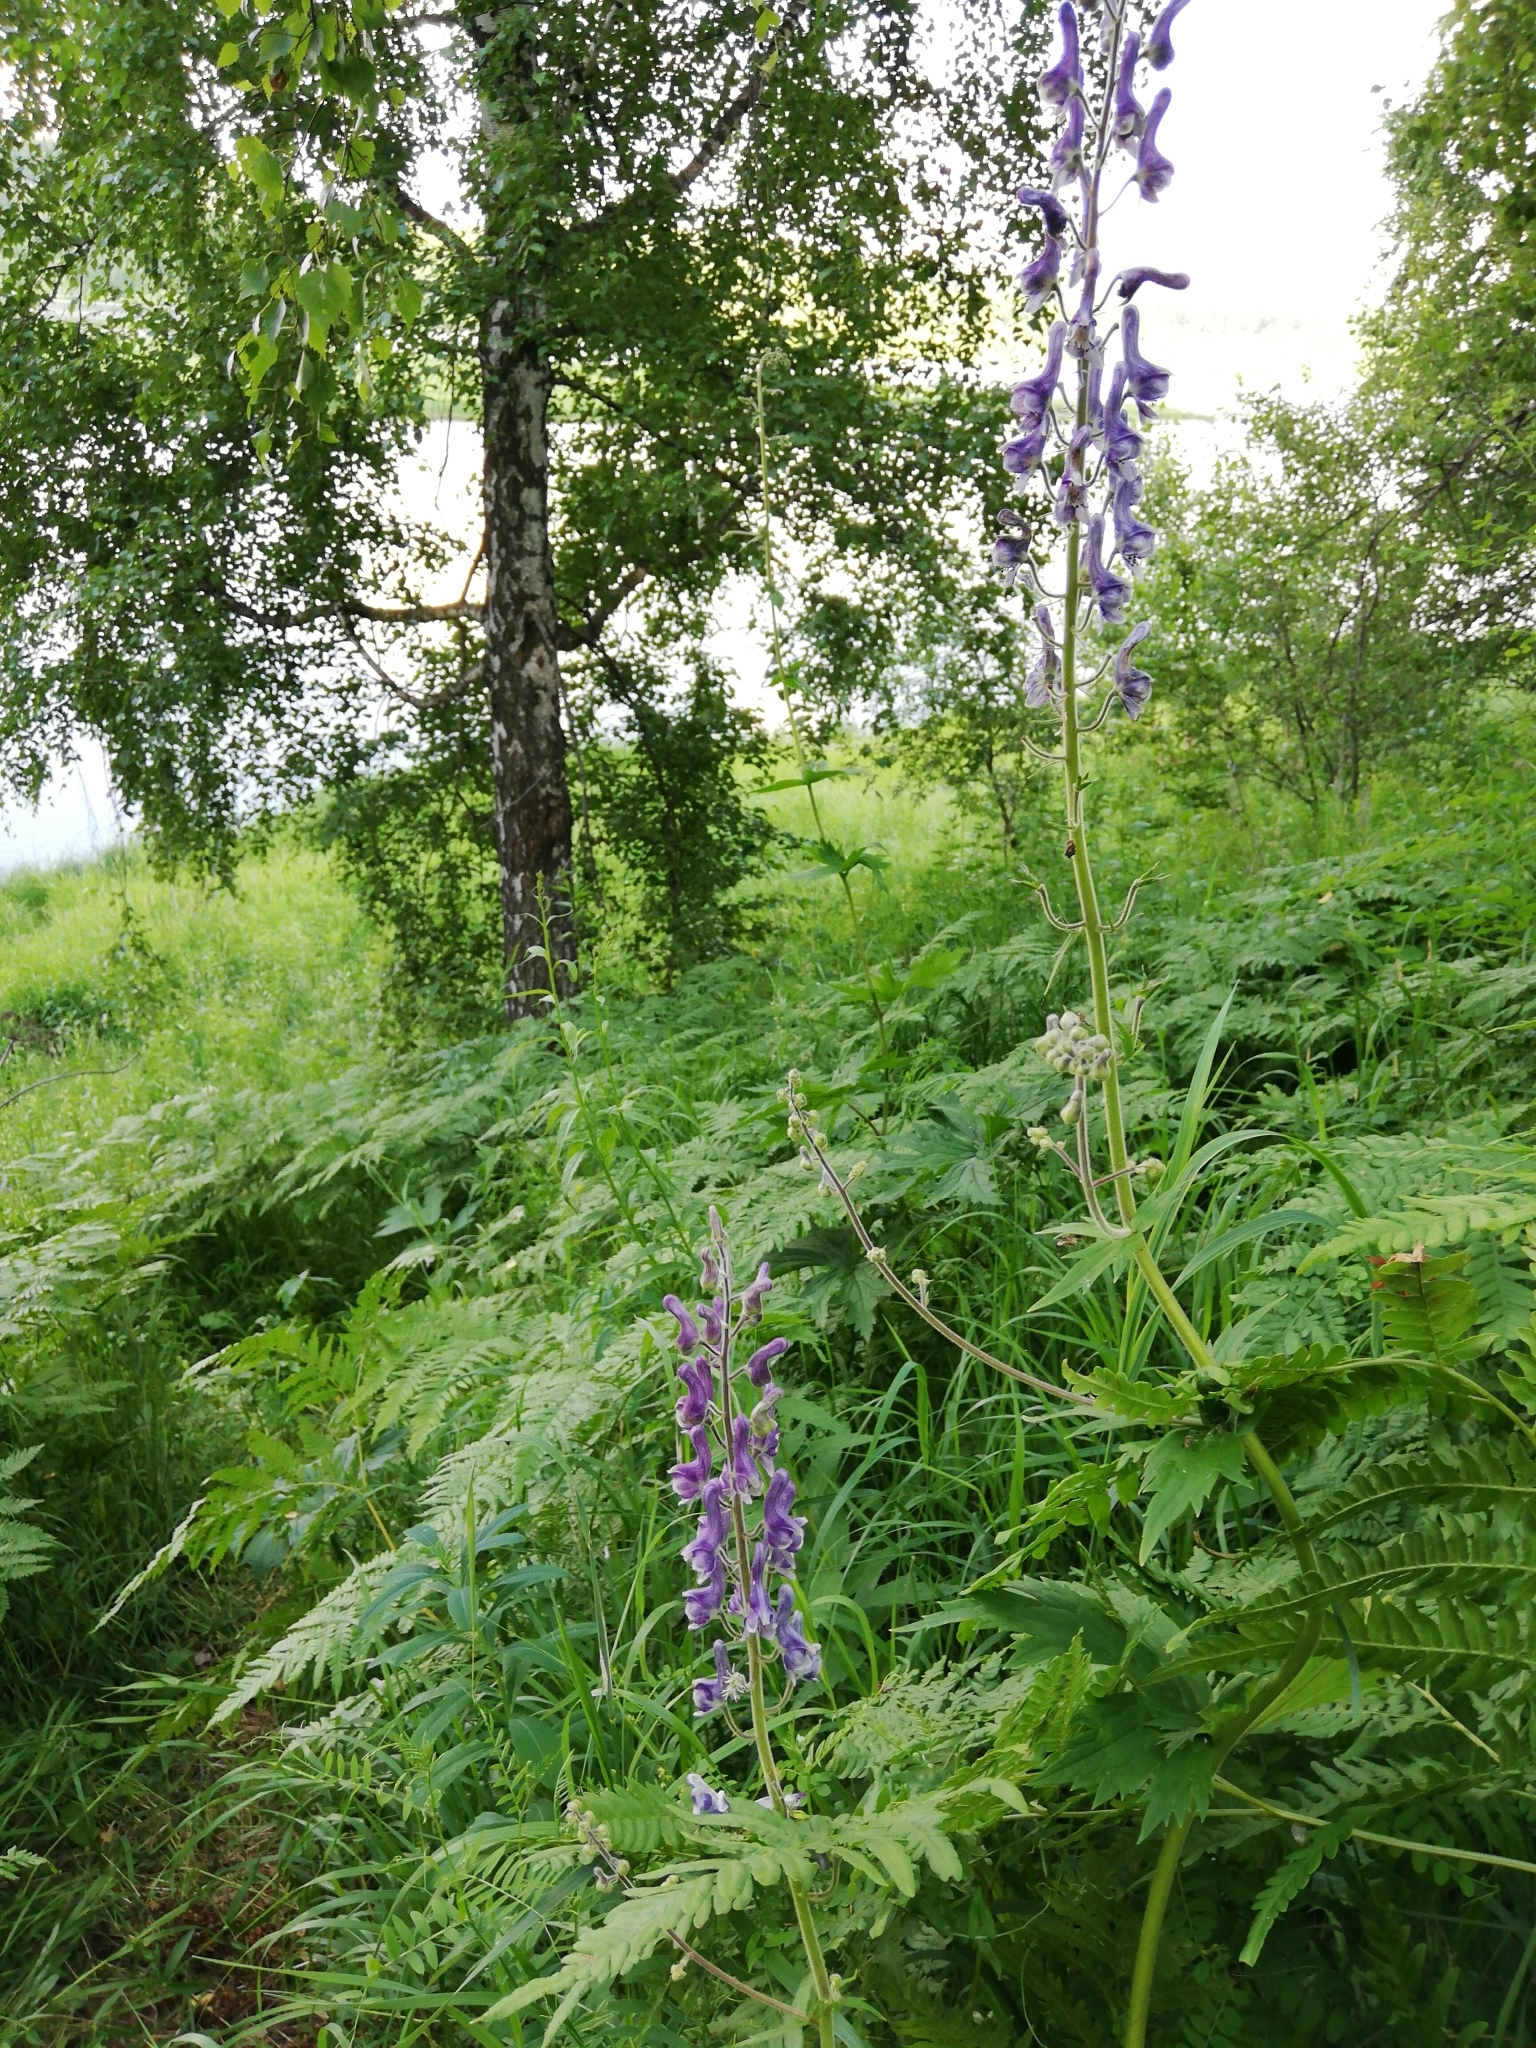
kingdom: Plantae
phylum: Tracheophyta
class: Magnoliopsida
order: Ranunculales
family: Ranunculaceae
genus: Aconitum
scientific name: Aconitum septentrionale
